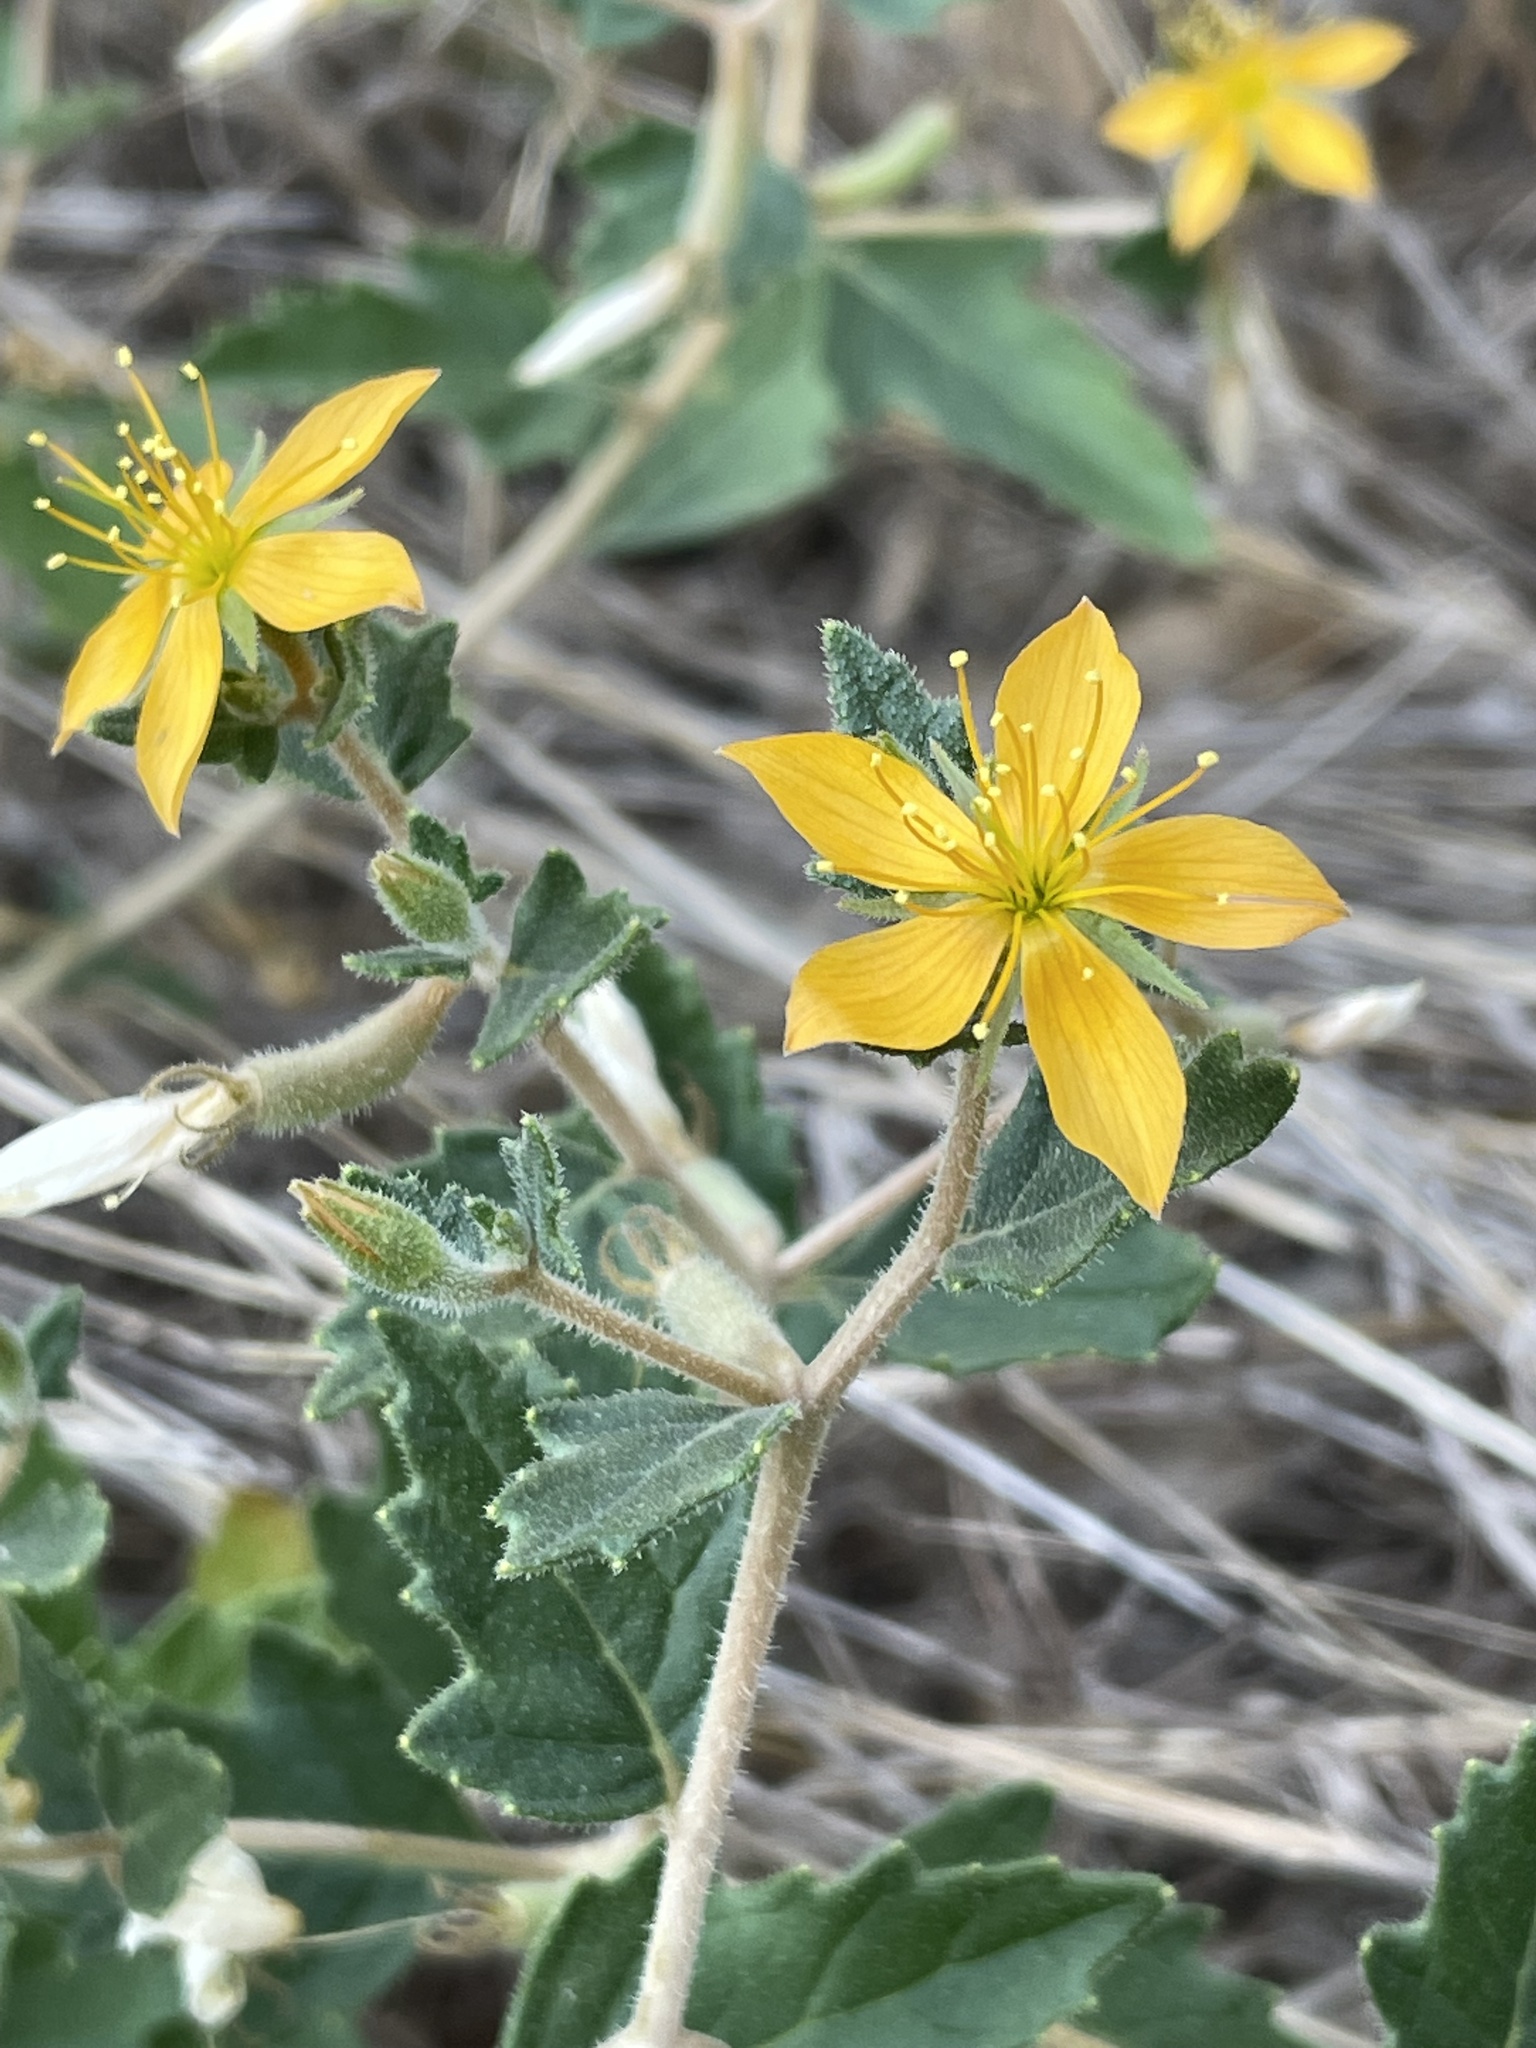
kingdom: Plantae
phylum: Tracheophyta
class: Magnoliopsida
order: Cornales
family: Loasaceae
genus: Mentzelia
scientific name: Mentzelia oligosperma
